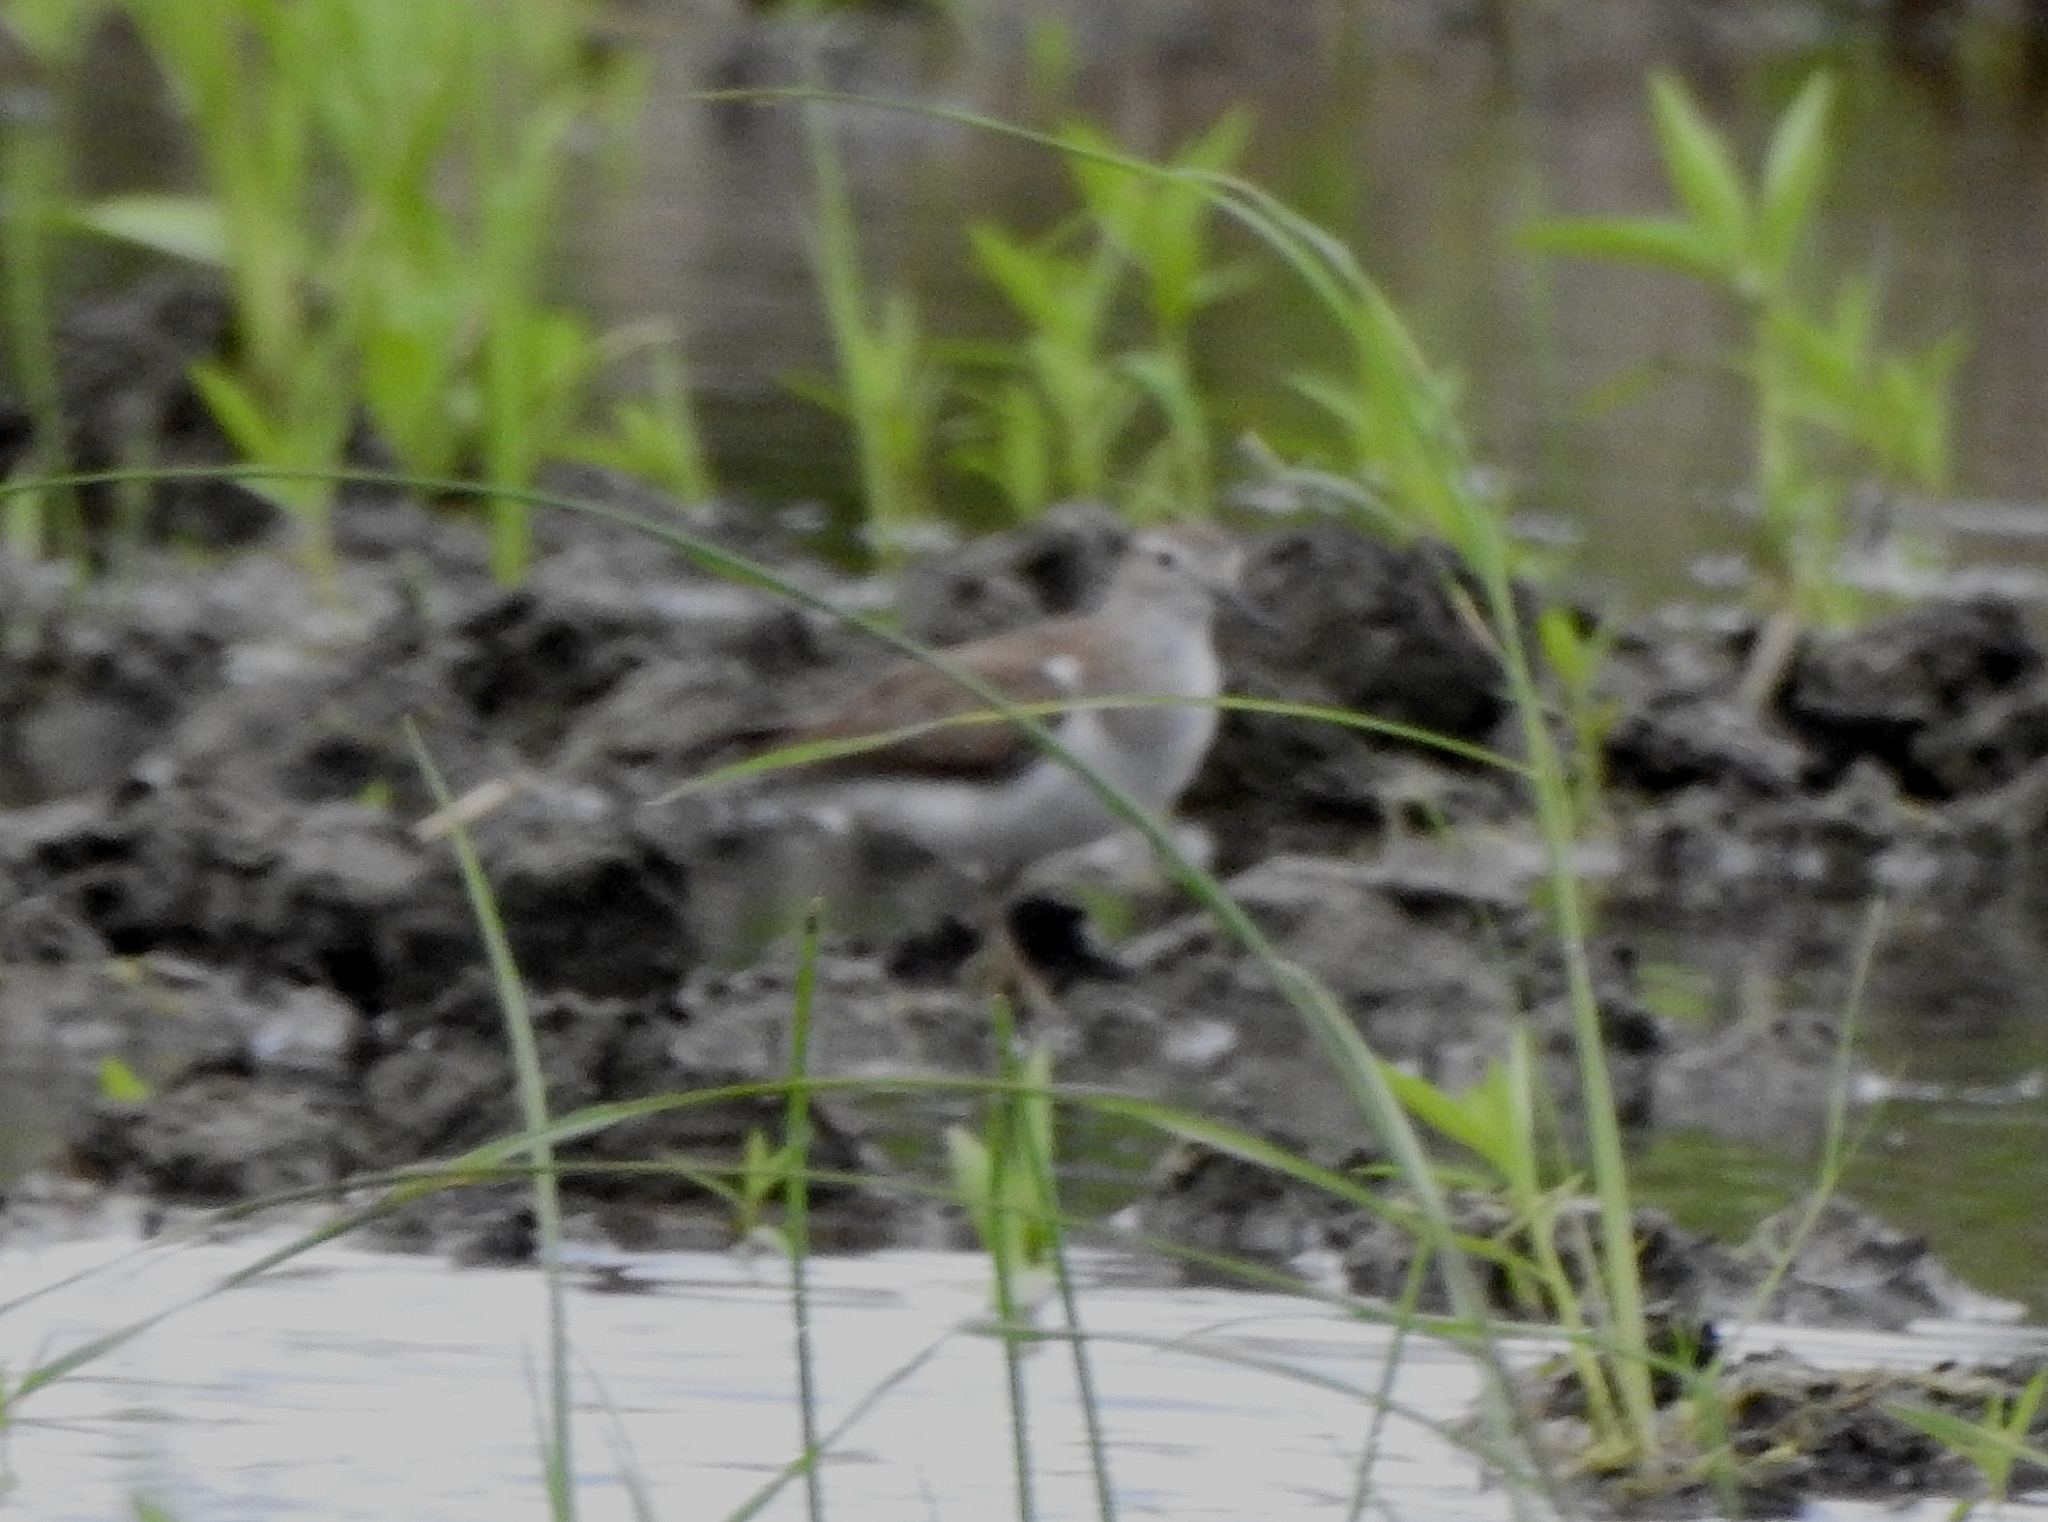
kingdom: Animalia
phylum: Chordata
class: Aves
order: Charadriiformes
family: Scolopacidae
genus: Actitis
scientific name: Actitis hypoleucos
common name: Common sandpiper
